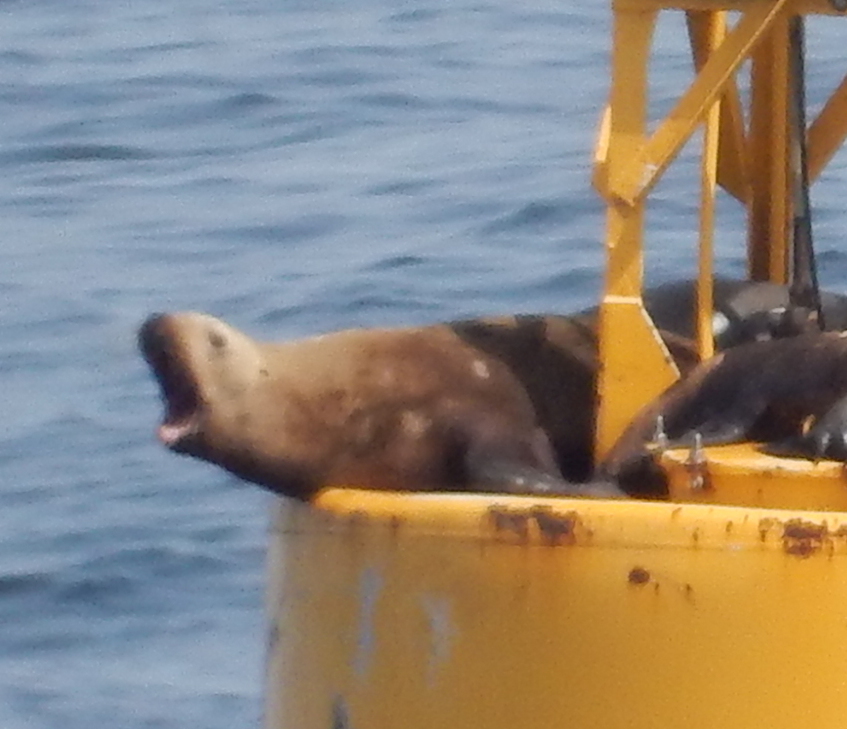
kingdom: Animalia
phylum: Chordata
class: Mammalia
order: Carnivora
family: Otariidae
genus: Eumetopias
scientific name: Eumetopias jubatus
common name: Steller sea lion
